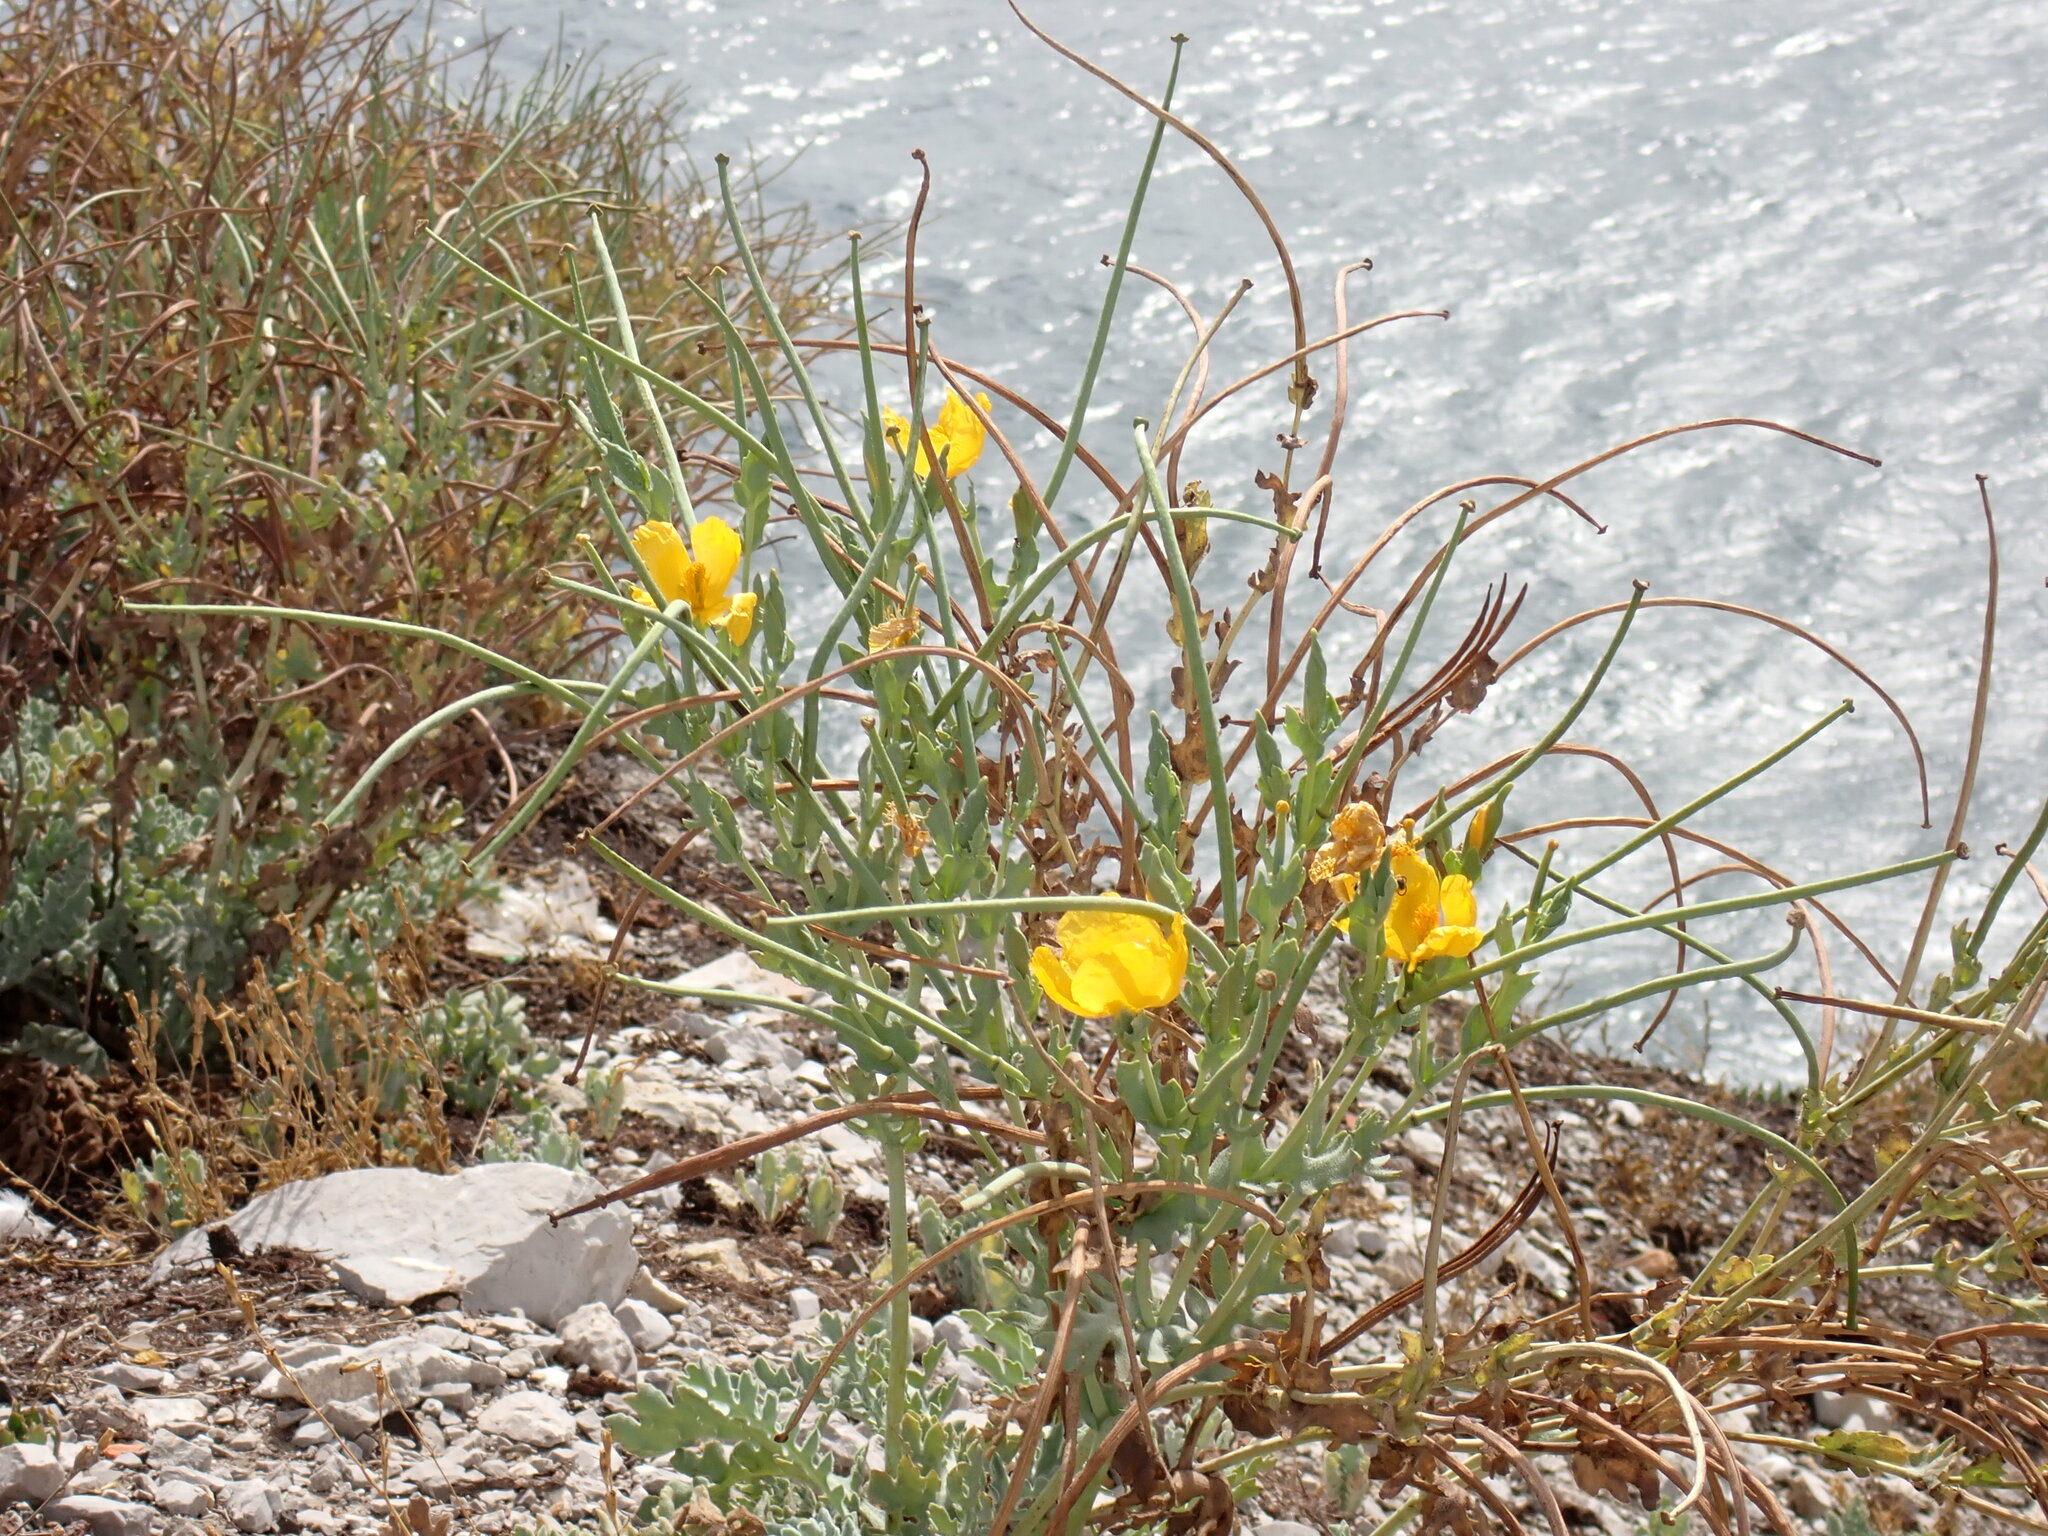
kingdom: Plantae
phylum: Tracheophyta
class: Magnoliopsida
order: Ranunculales
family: Papaveraceae
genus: Glaucium
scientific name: Glaucium flavum
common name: Yellow horned-poppy
